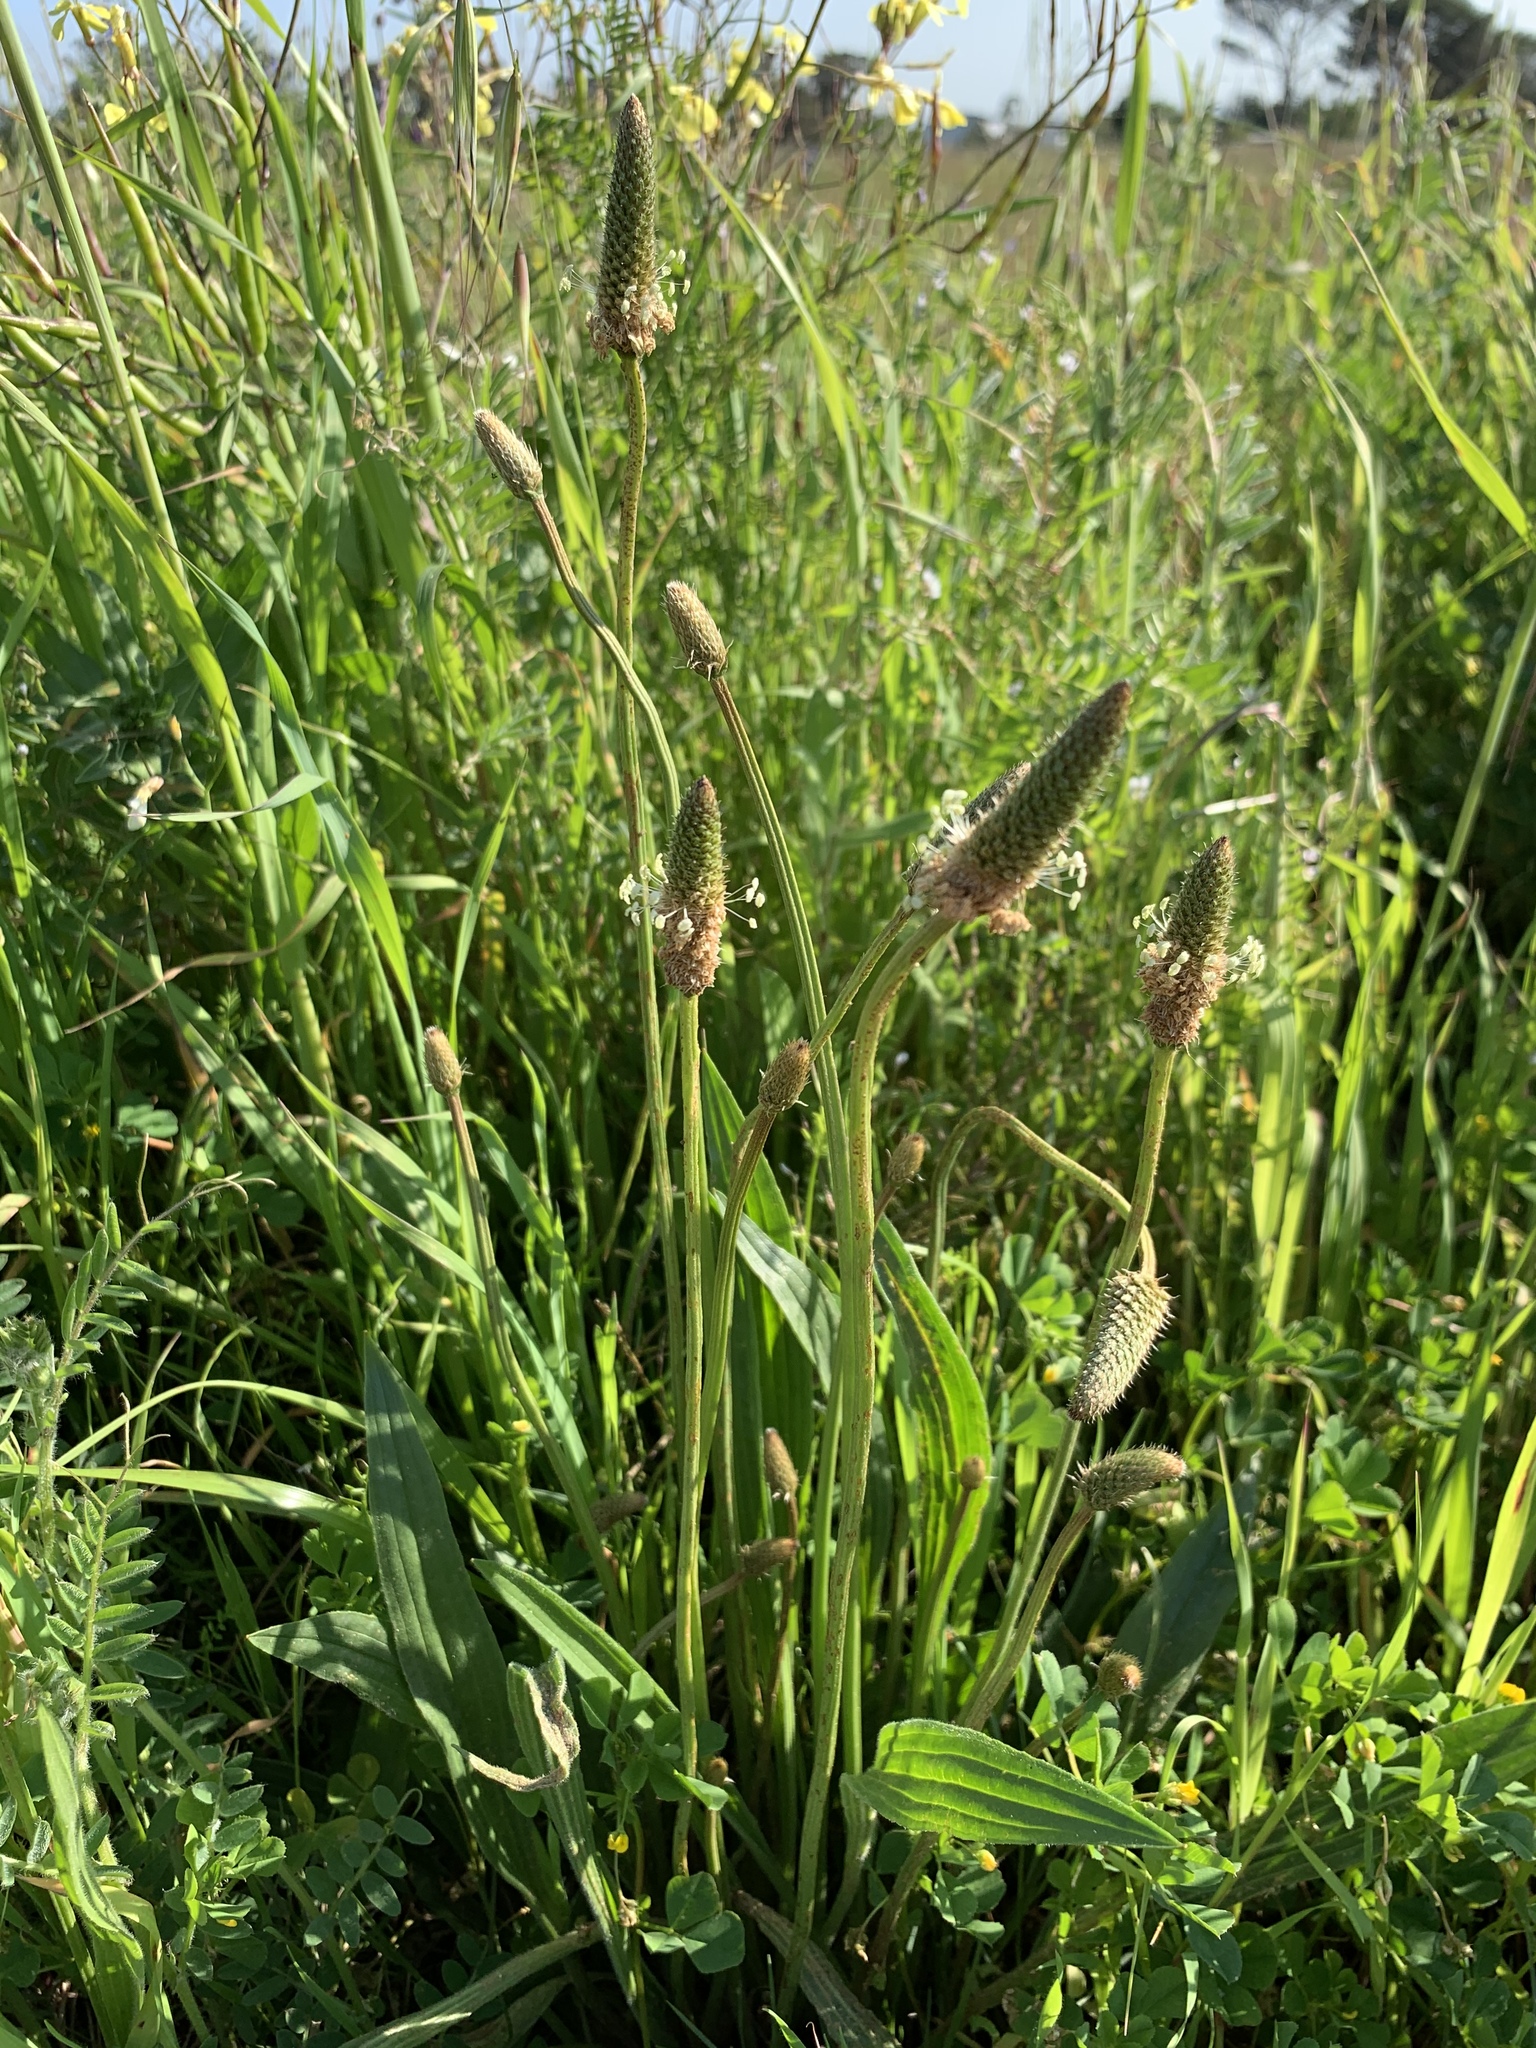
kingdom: Plantae
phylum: Tracheophyta
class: Magnoliopsida
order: Lamiales
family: Plantaginaceae
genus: Plantago
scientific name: Plantago lanceolata
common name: Ribwort plantain
